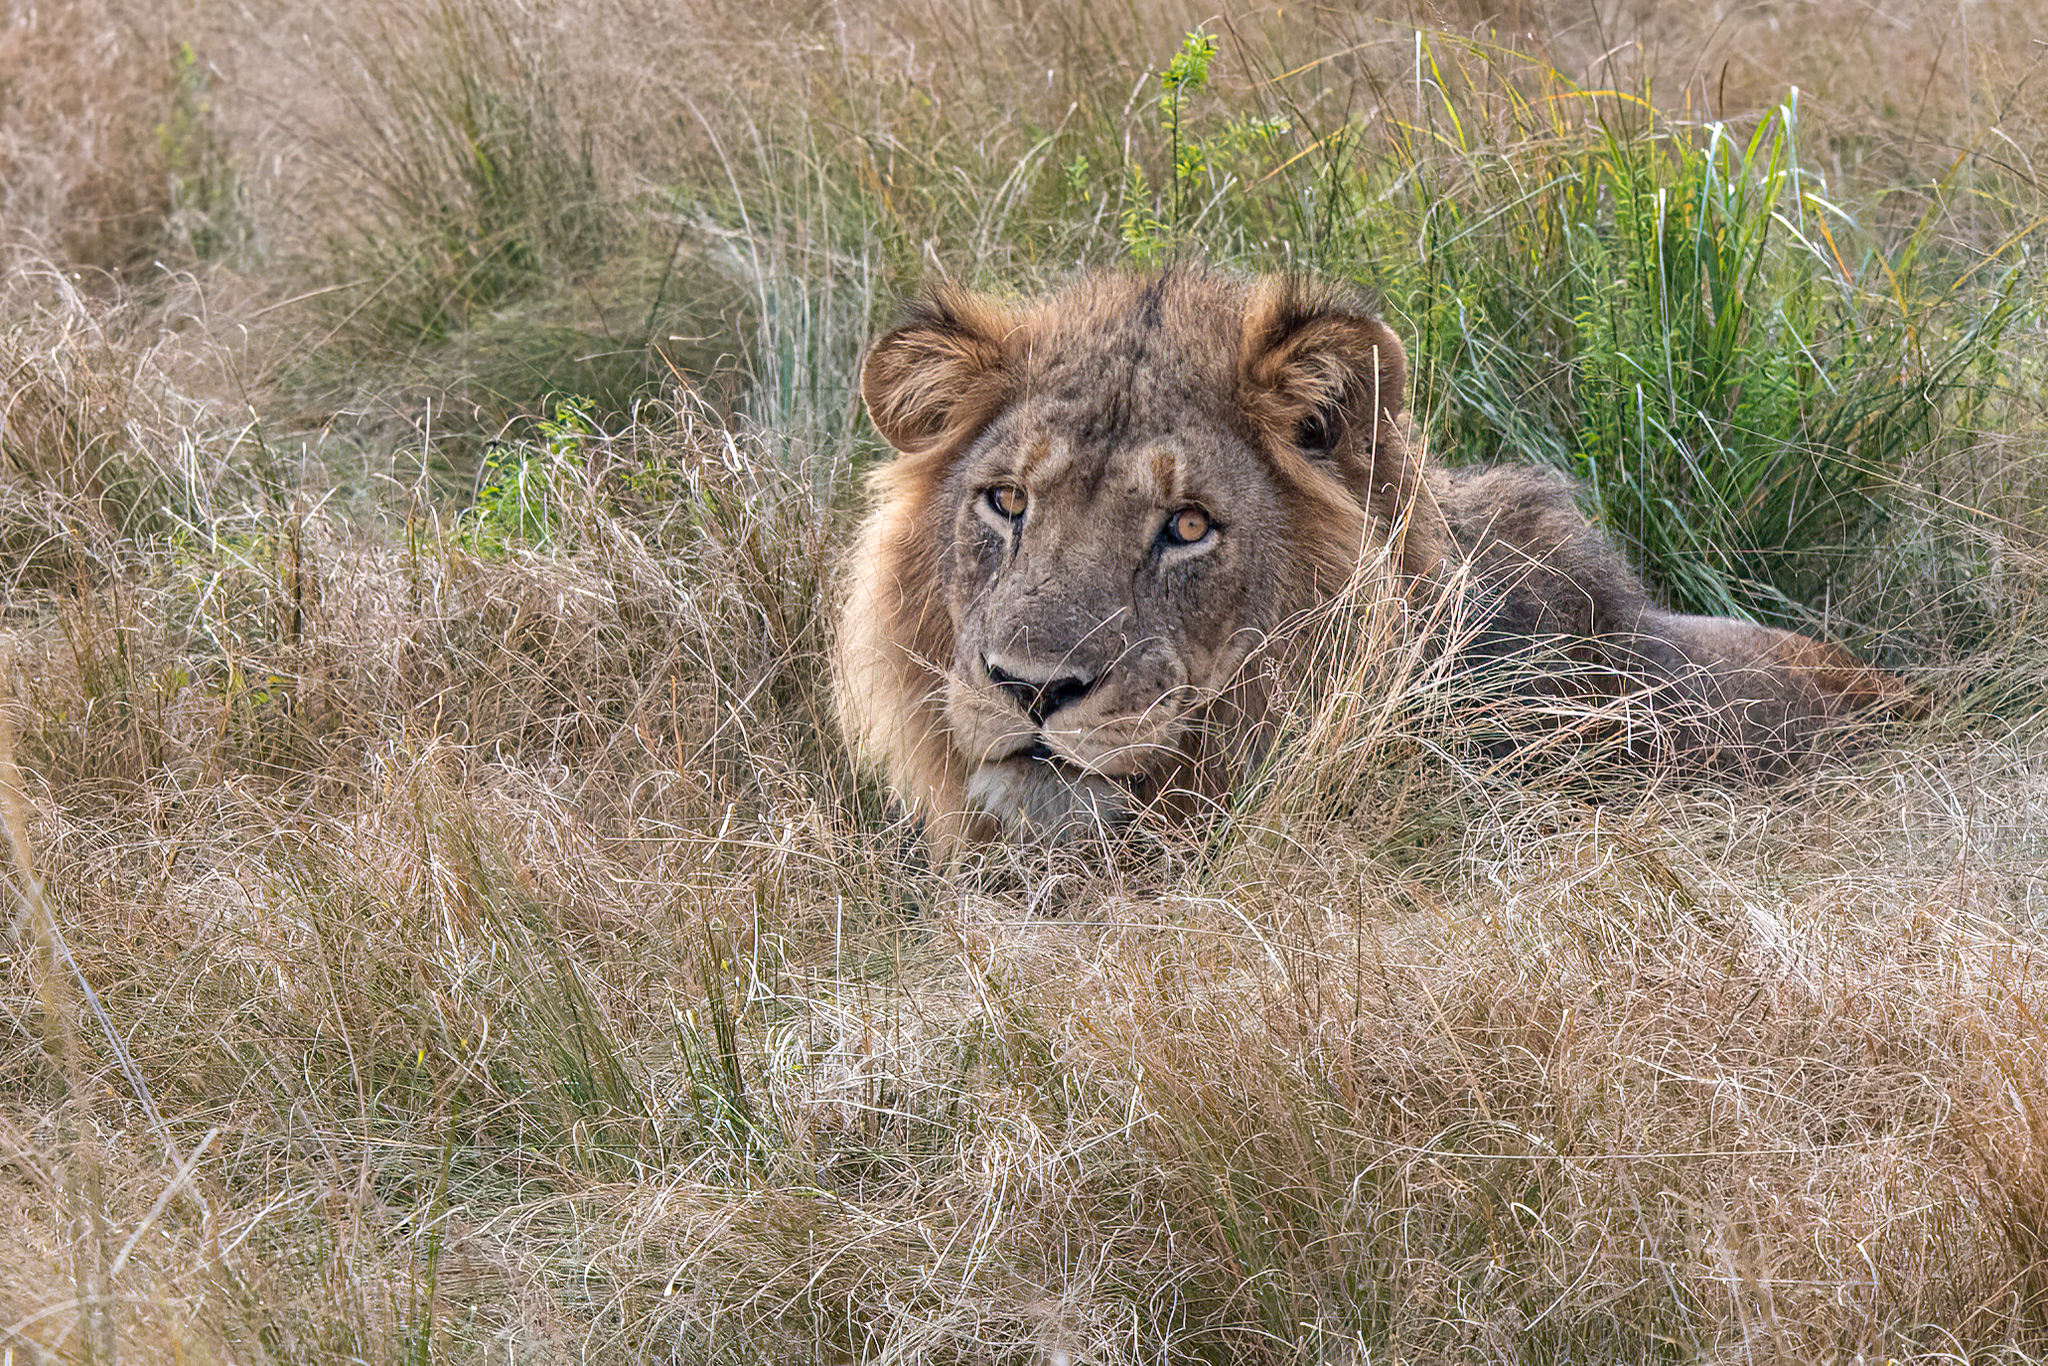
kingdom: Animalia
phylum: Chordata
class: Mammalia
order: Carnivora
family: Felidae
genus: Panthera
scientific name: Panthera leo
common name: Lion
